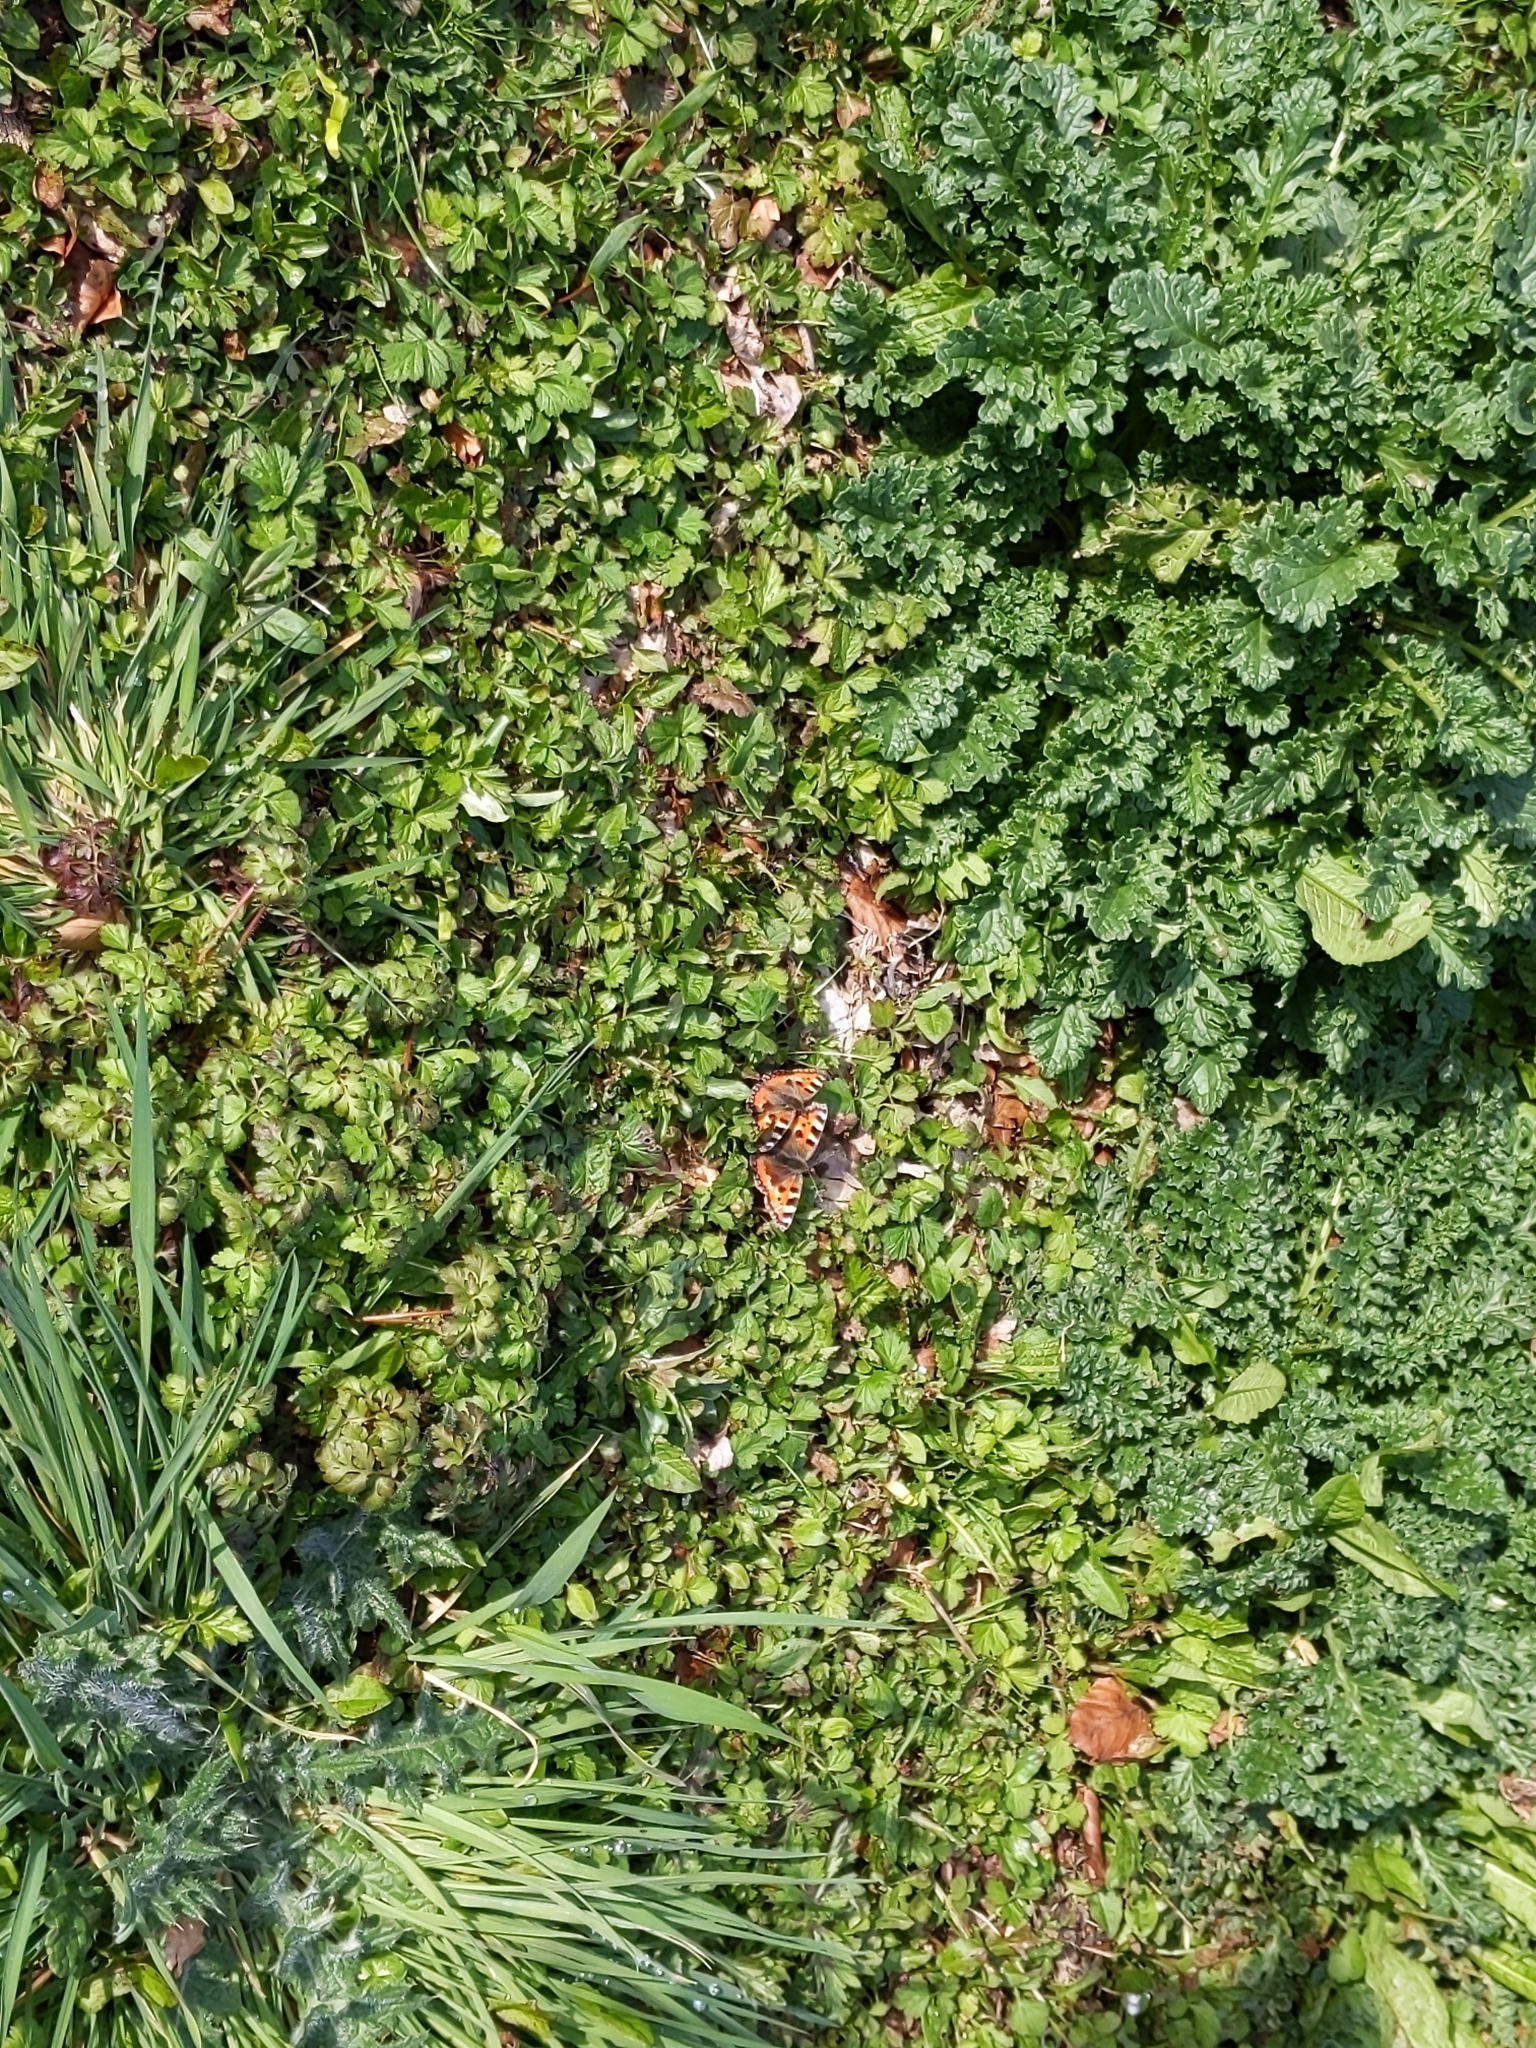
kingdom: Animalia
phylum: Arthropoda
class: Insecta
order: Lepidoptera
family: Nymphalidae
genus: Aglais
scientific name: Aglais urticae
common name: Small tortoiseshell
